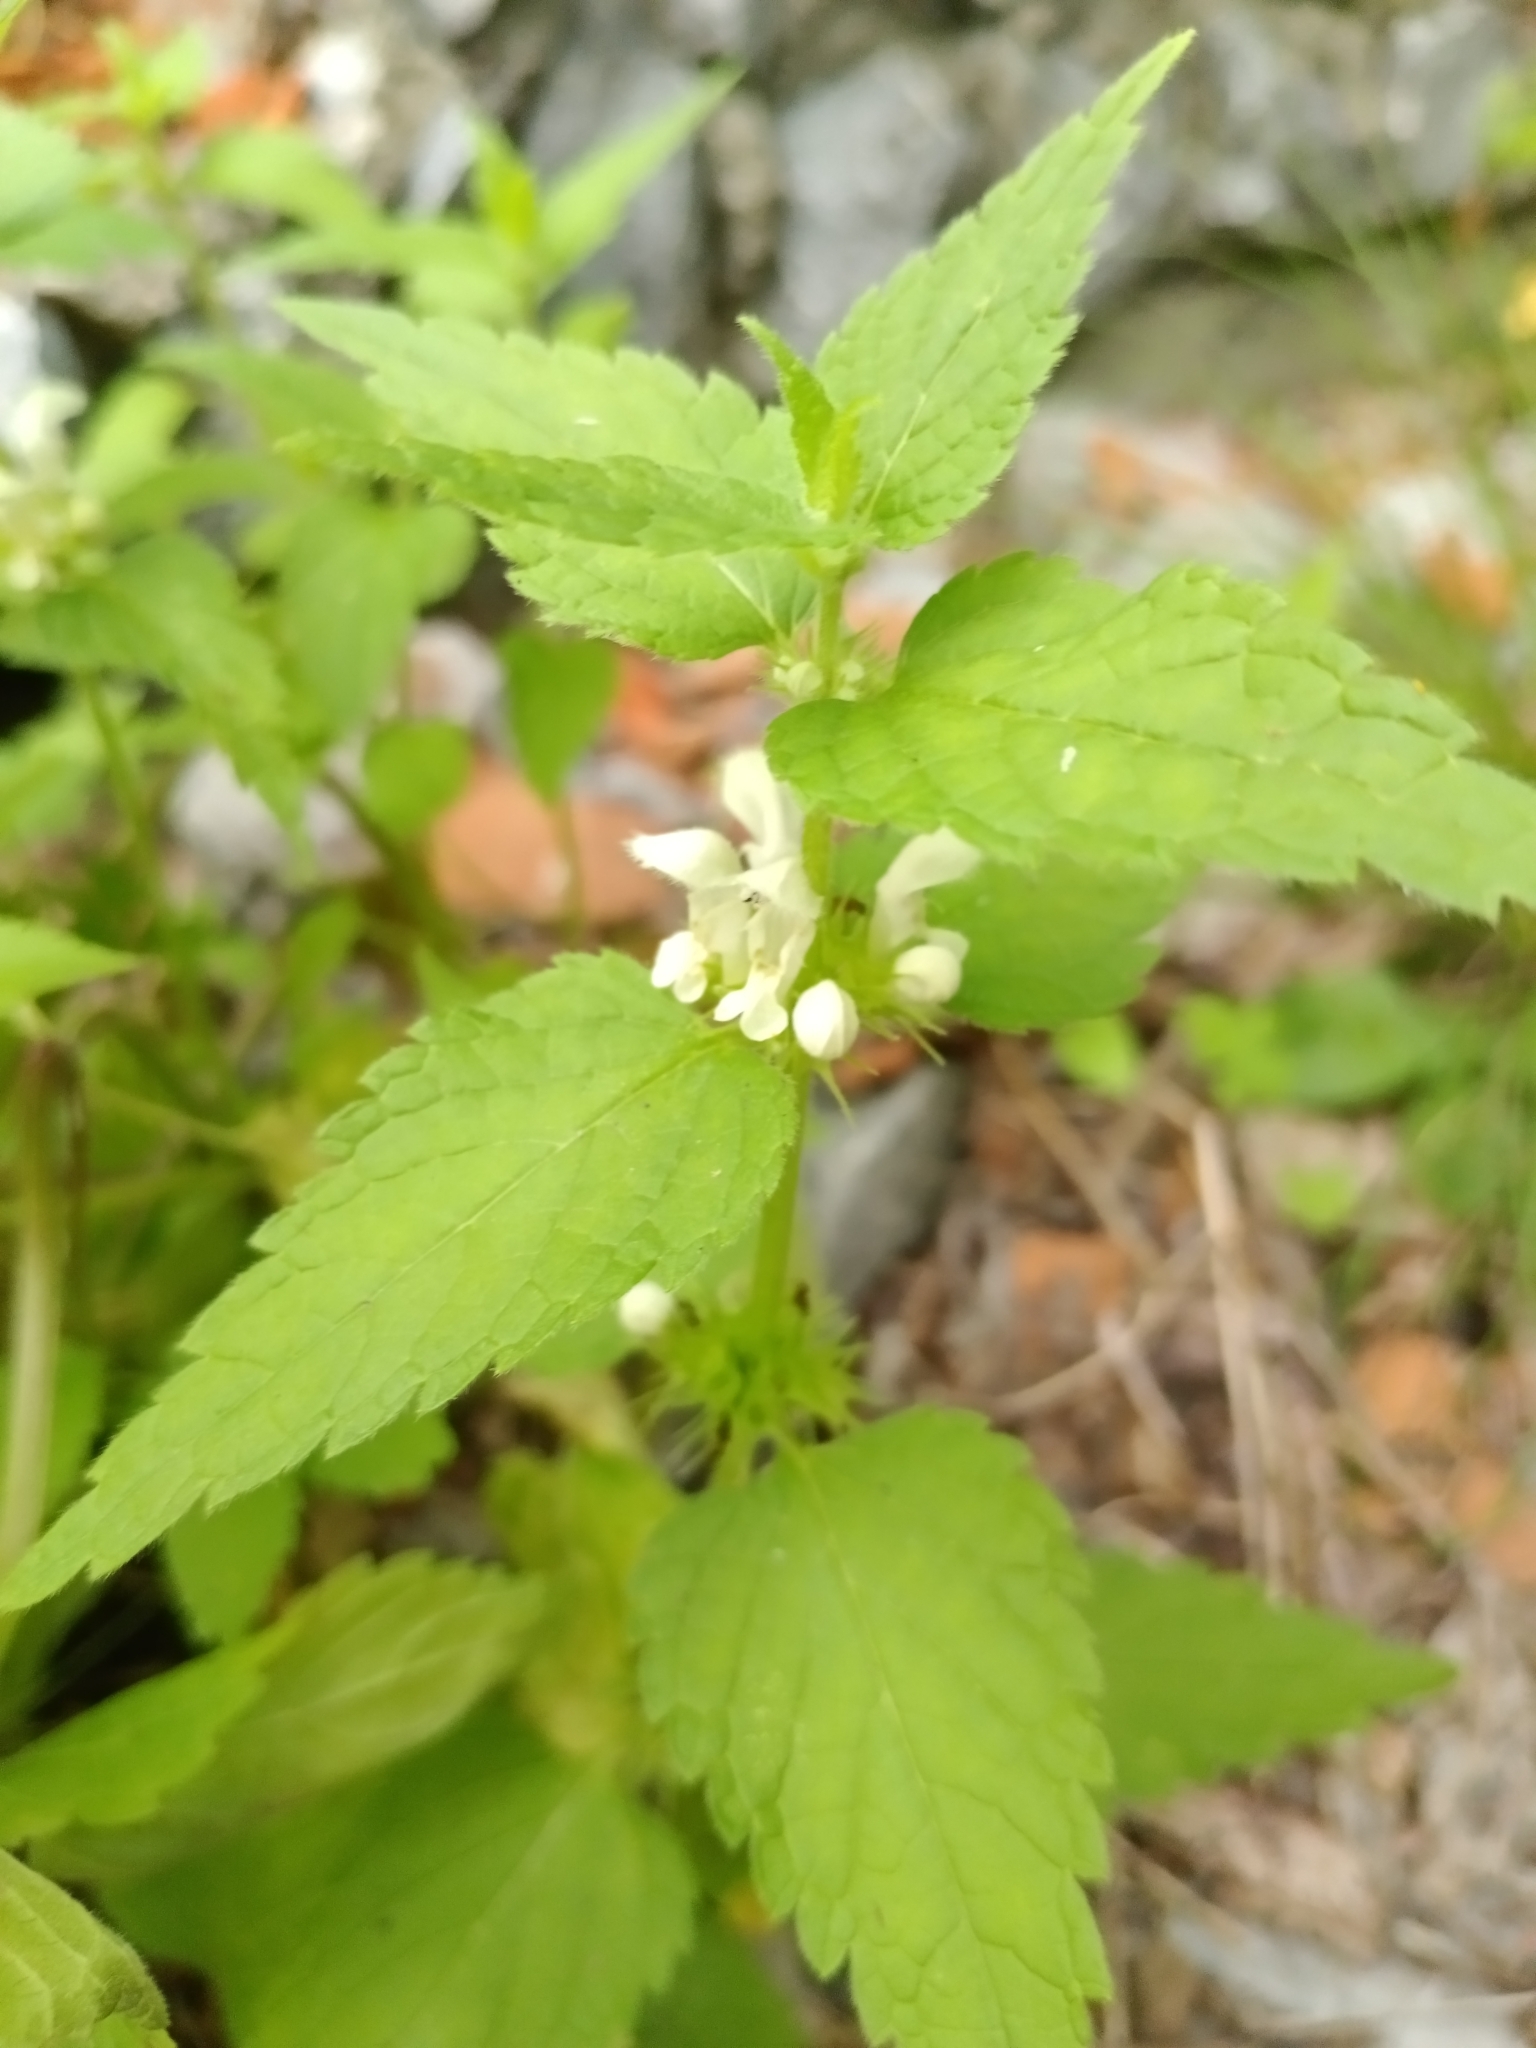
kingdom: Plantae
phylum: Tracheophyta
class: Magnoliopsida
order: Lamiales
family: Lamiaceae
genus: Lamium
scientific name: Lamium album
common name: White dead-nettle
